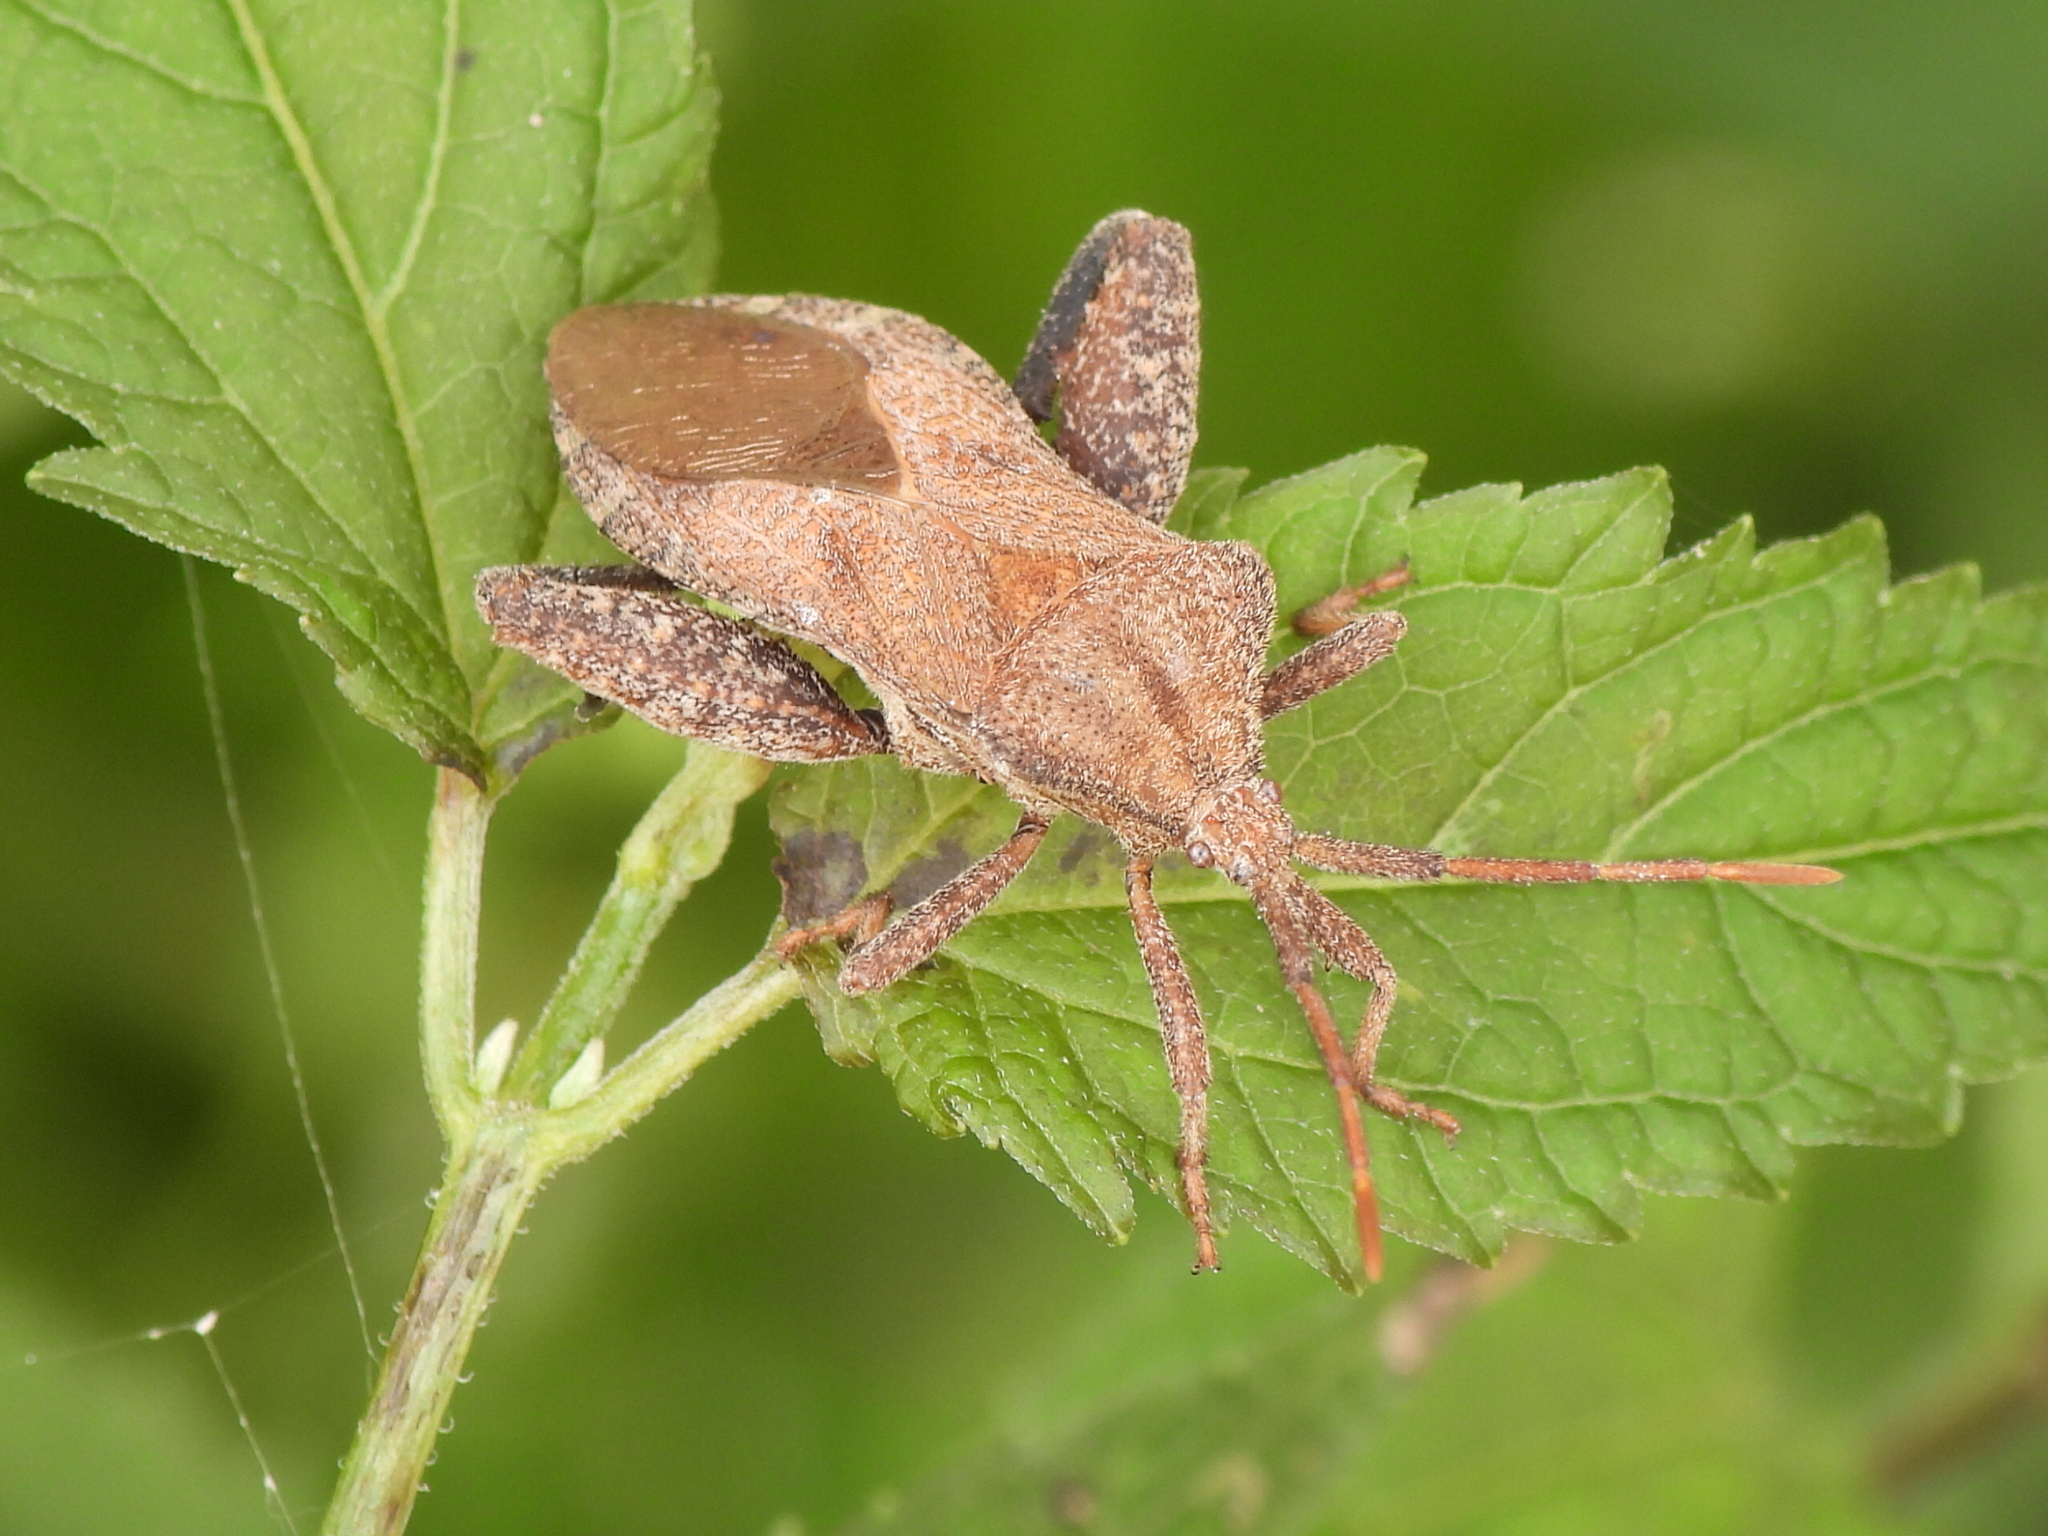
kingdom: Animalia
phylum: Arthropoda
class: Insecta
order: Hemiptera
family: Coreidae
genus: Piezogaster
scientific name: Piezogaster calcarator
